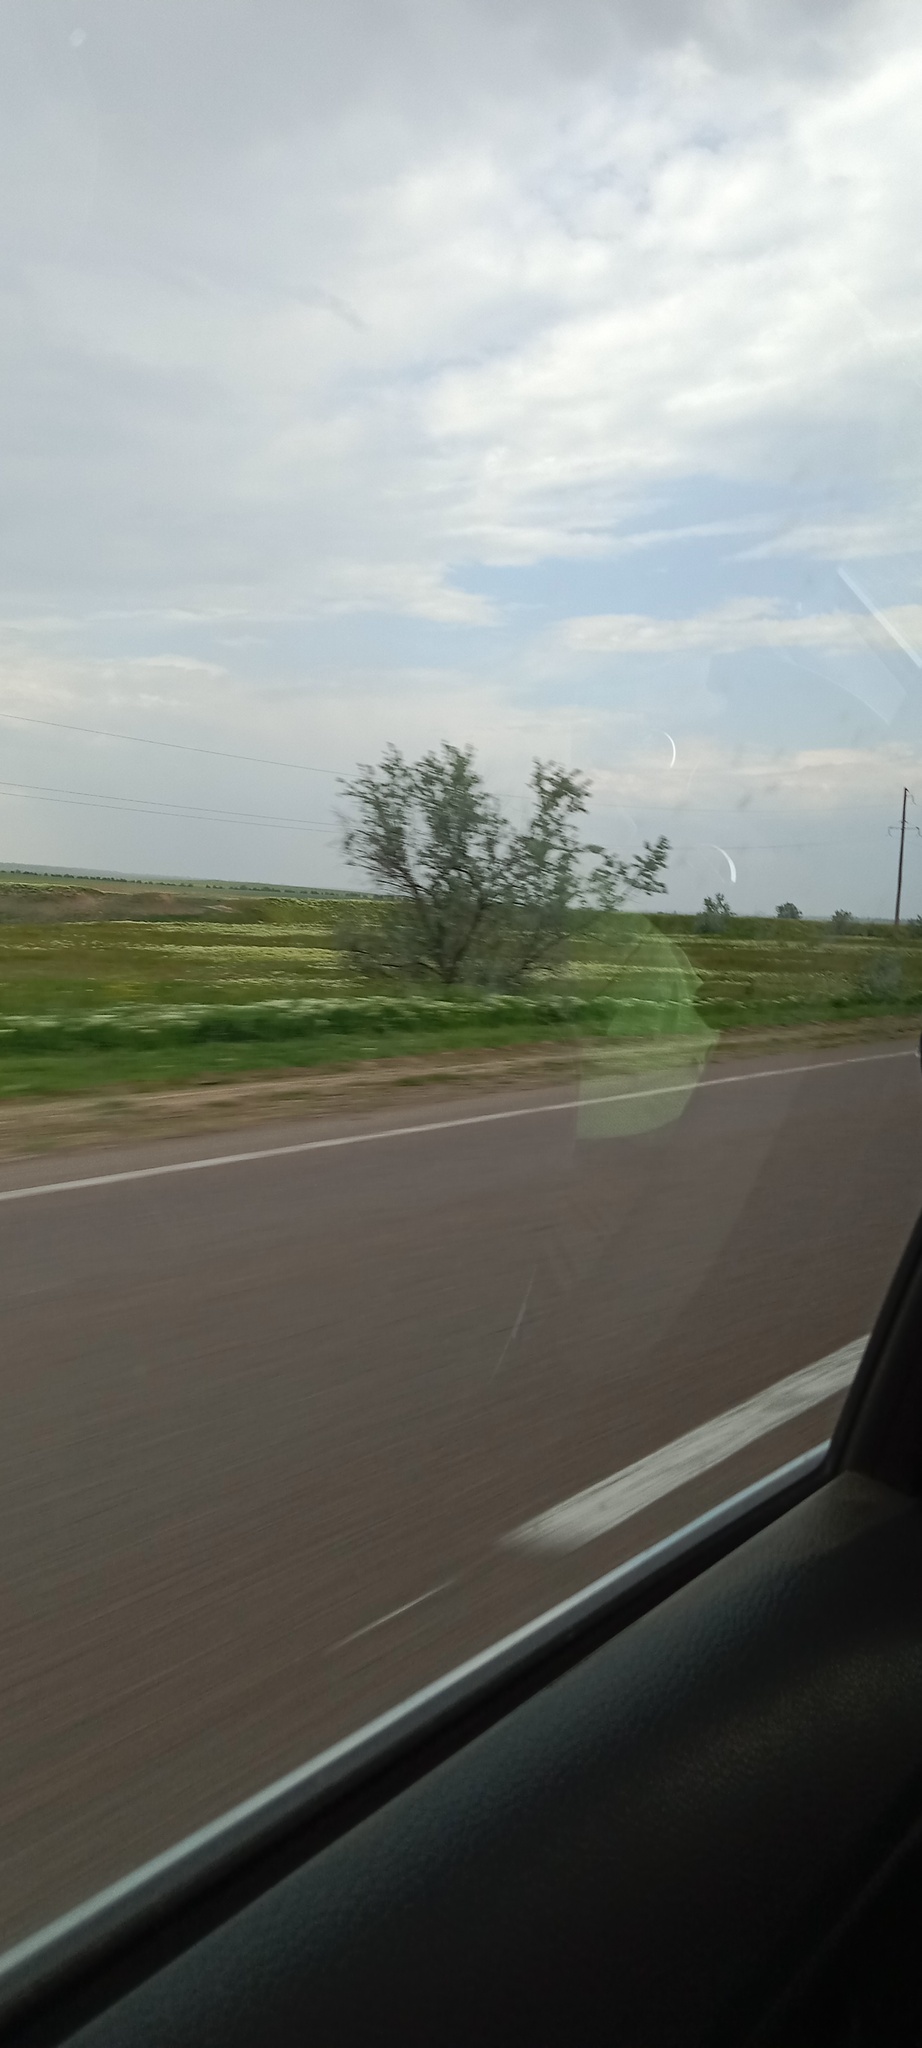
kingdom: Plantae
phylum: Tracheophyta
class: Magnoliopsida
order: Rosales
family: Elaeagnaceae
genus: Elaeagnus
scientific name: Elaeagnus angustifolia
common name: Russian olive
